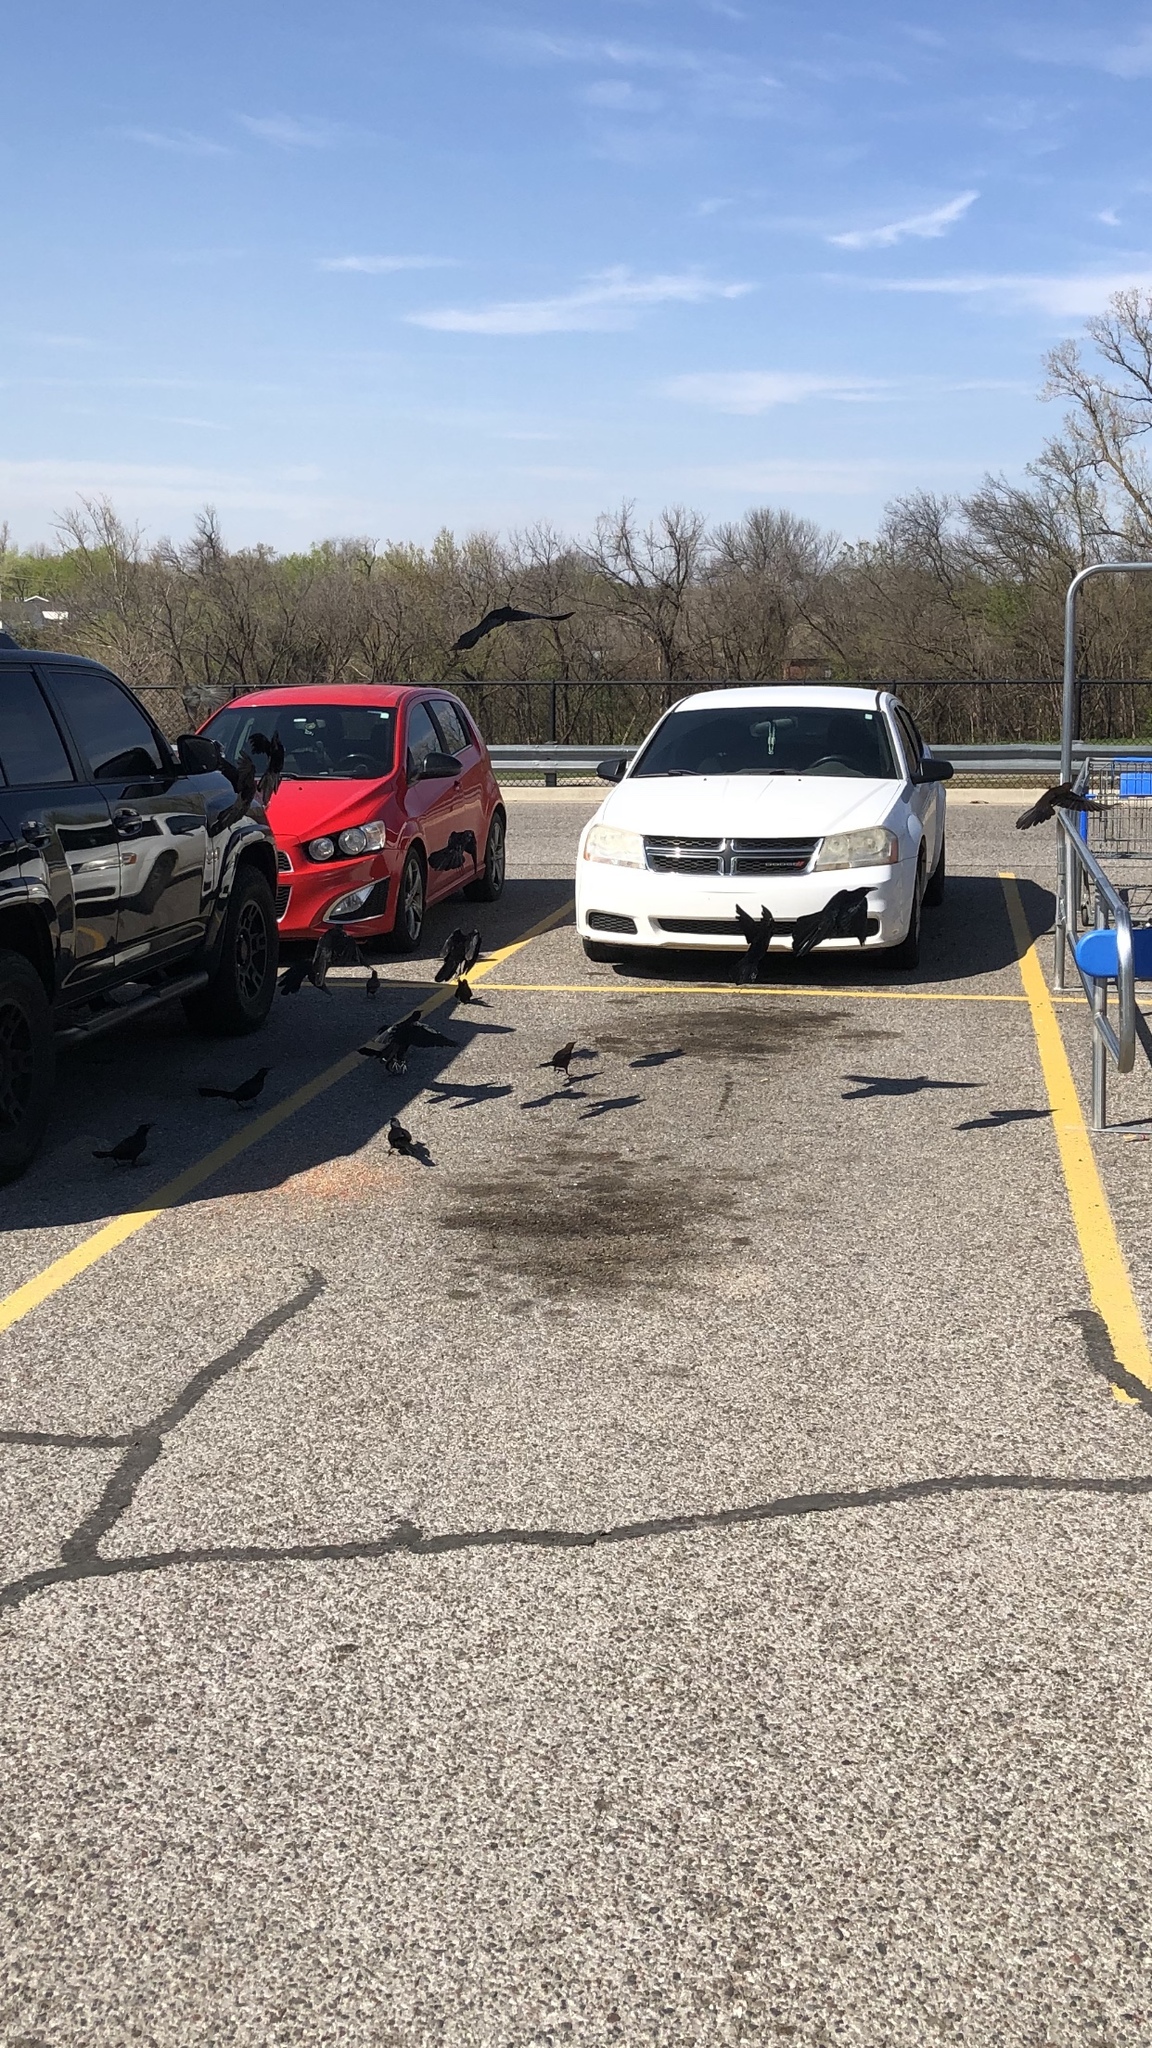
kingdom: Animalia
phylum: Chordata
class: Aves
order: Passeriformes
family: Icteridae
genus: Quiscalus
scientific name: Quiscalus mexicanus
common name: Great-tailed grackle
